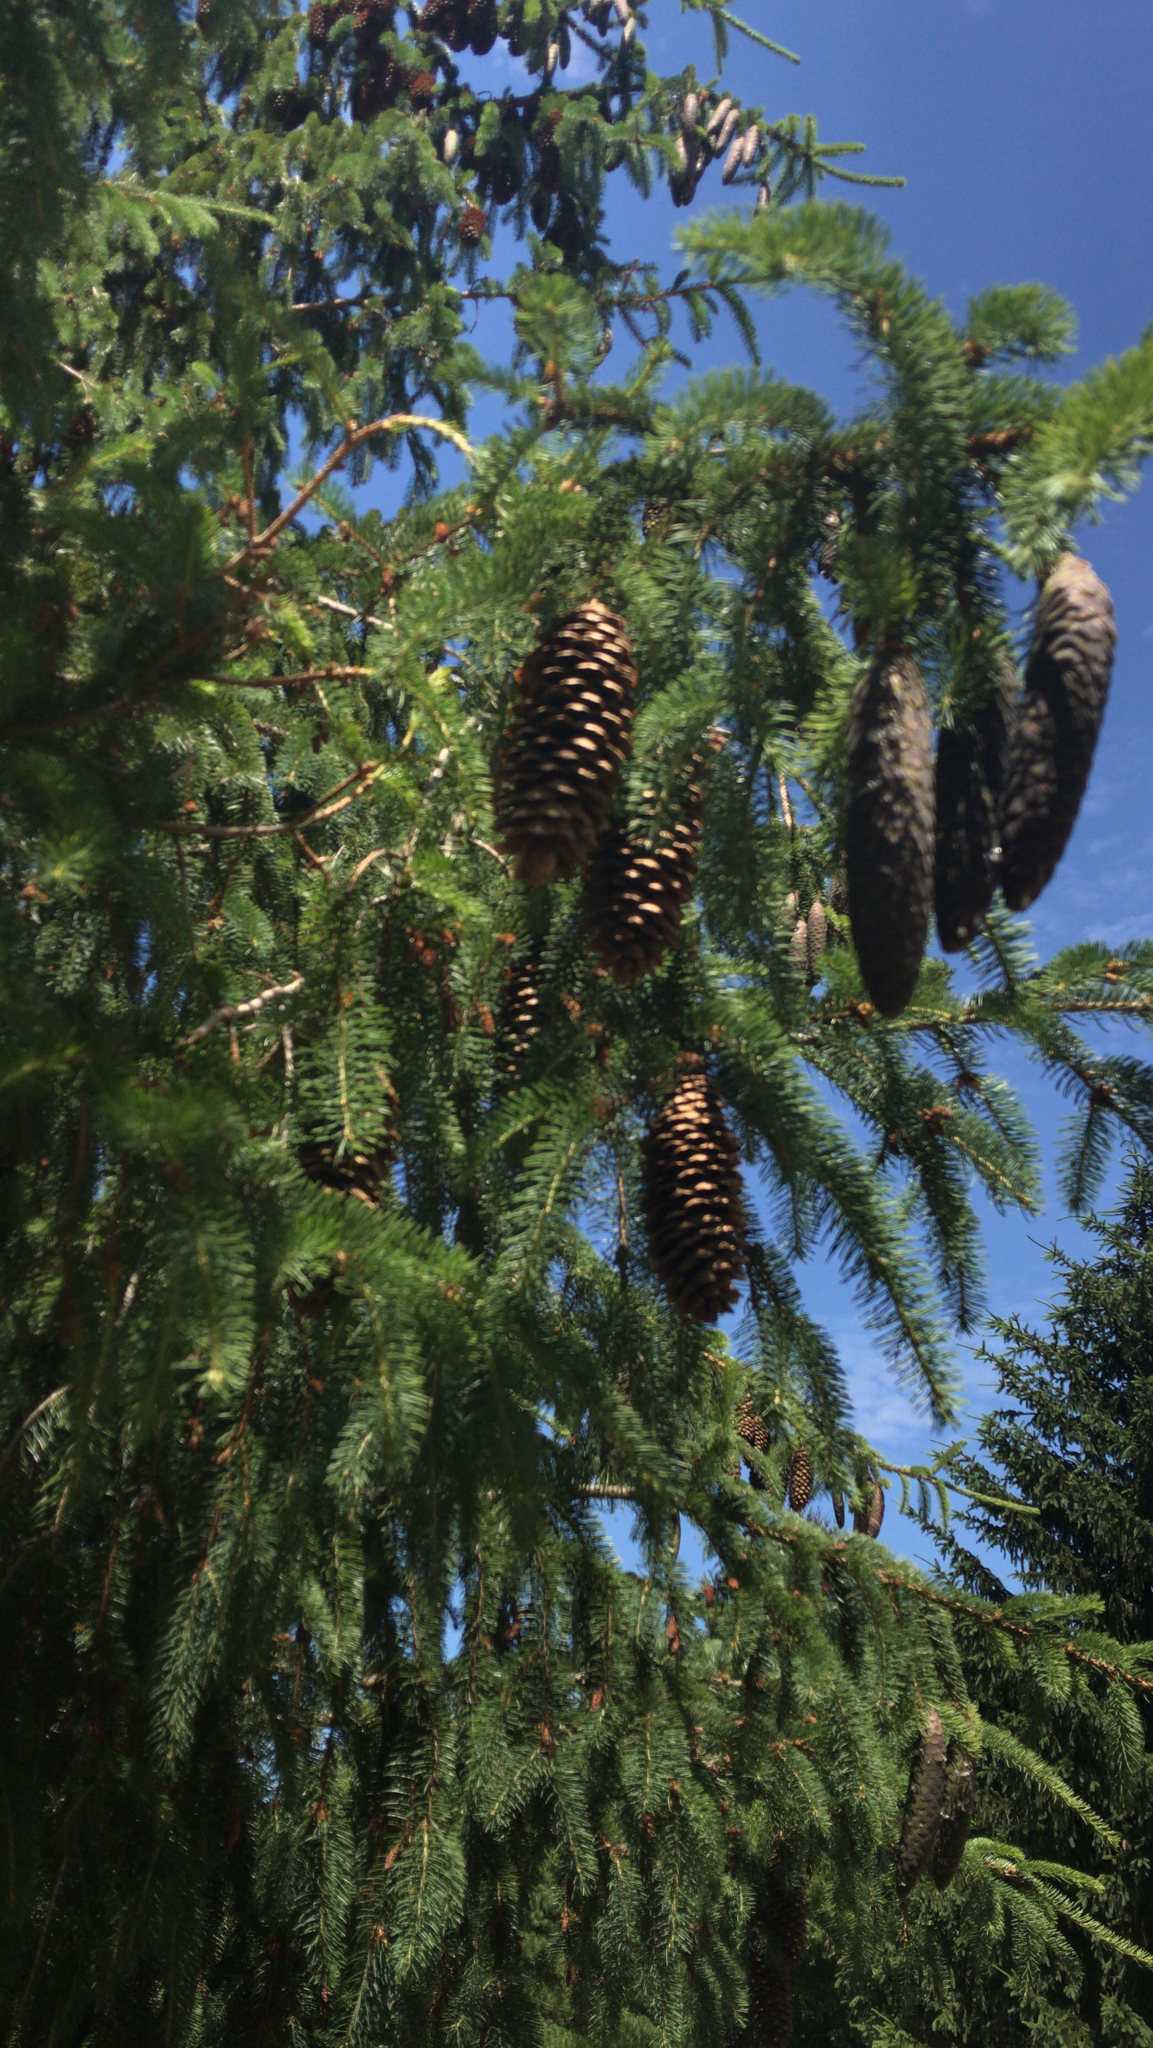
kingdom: Plantae
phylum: Tracheophyta
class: Pinopsida
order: Pinales
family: Pinaceae
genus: Picea
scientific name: Picea abies
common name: Norway spruce
